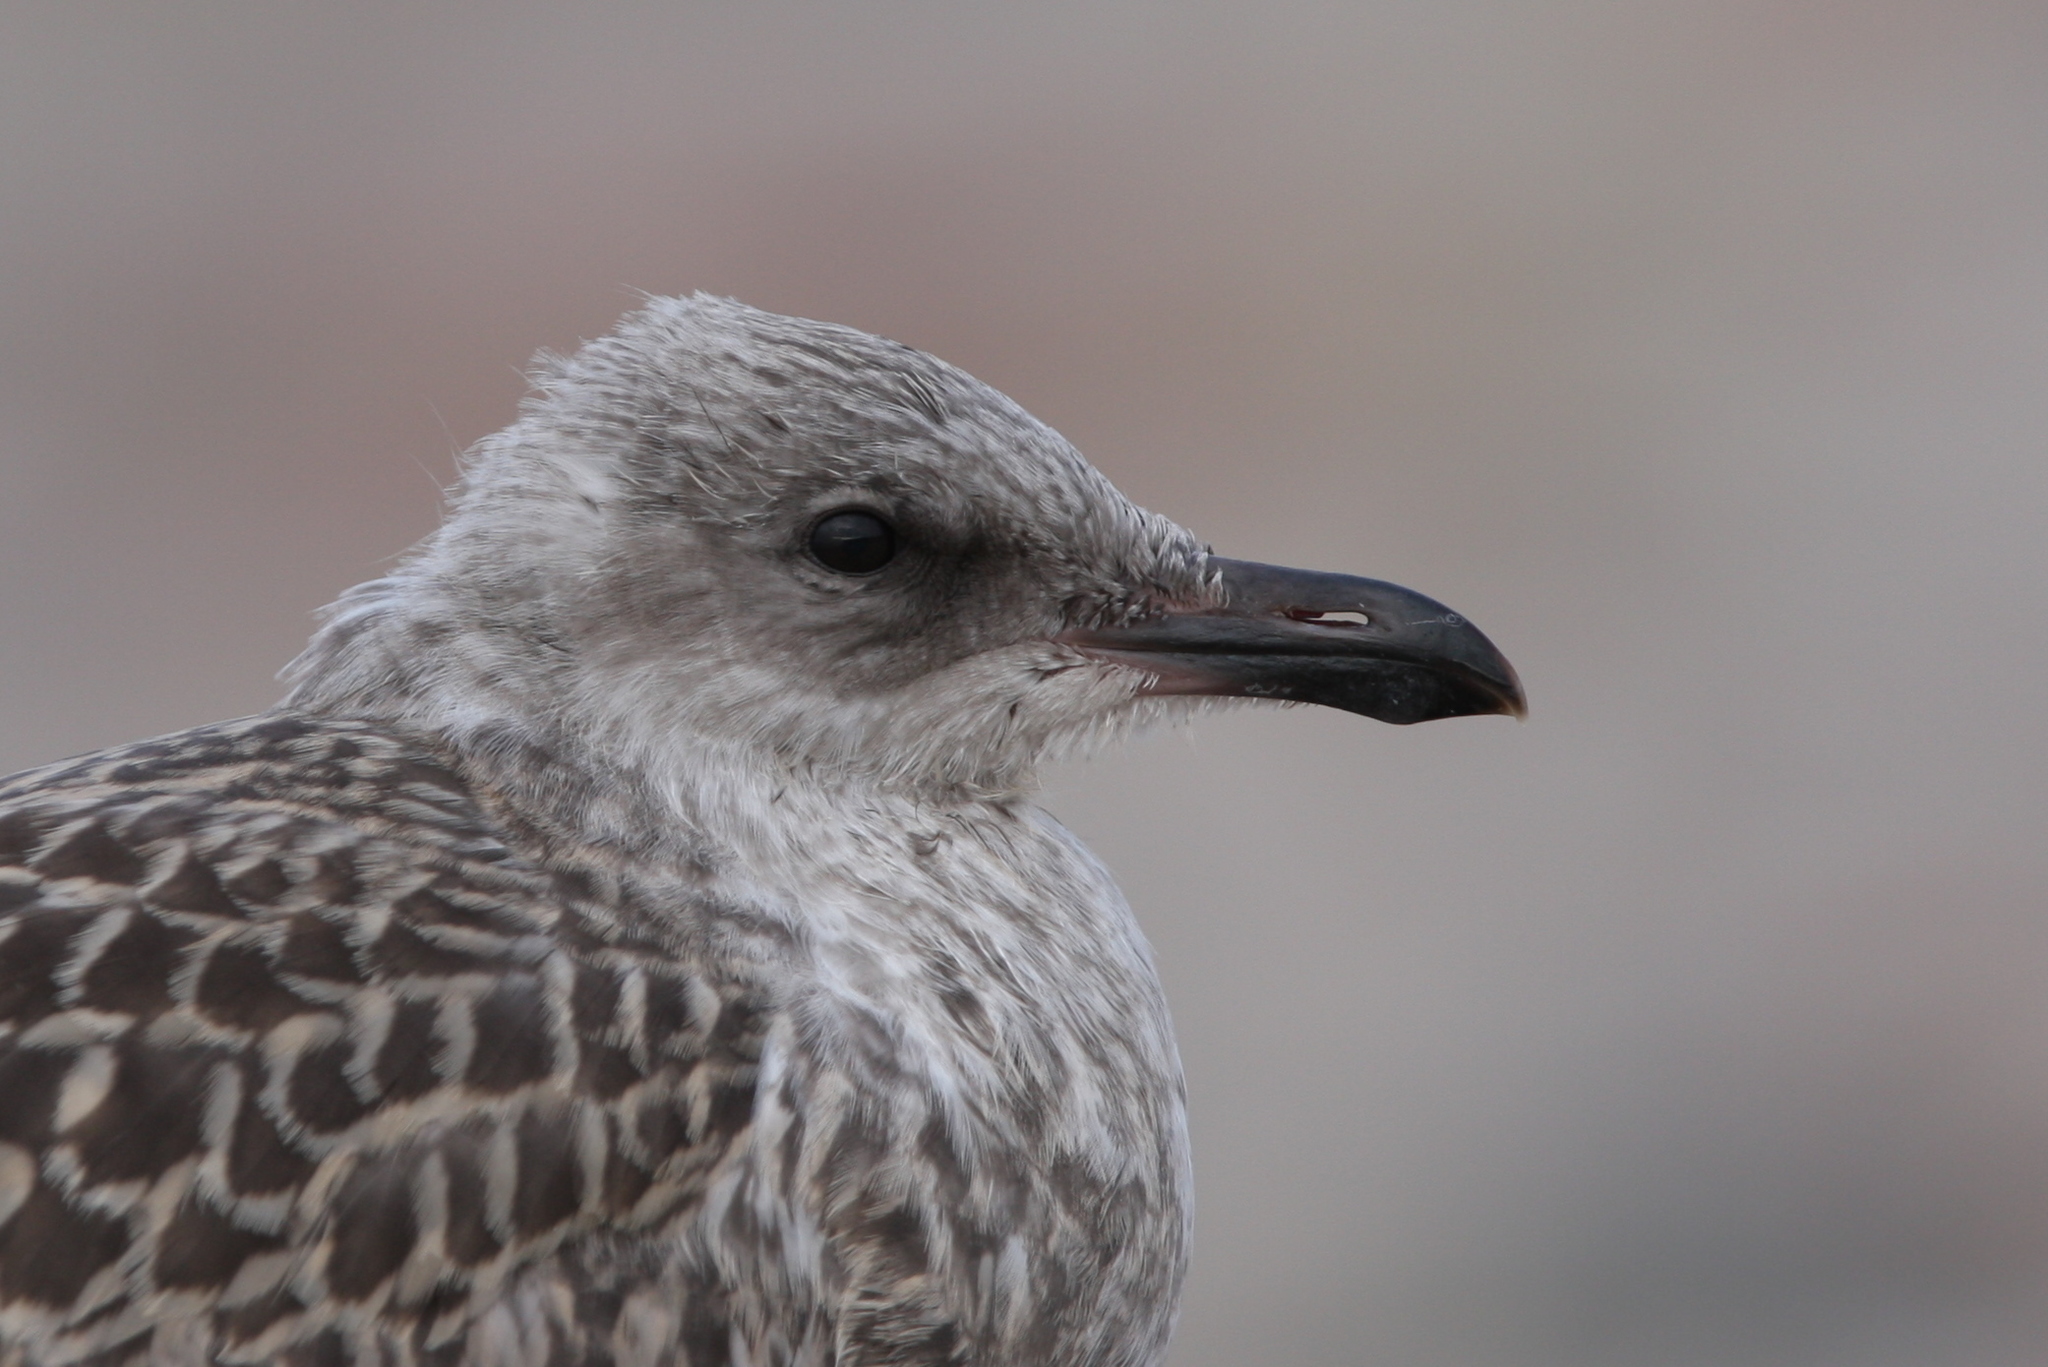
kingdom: Animalia
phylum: Chordata
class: Aves
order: Charadriiformes
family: Laridae
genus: Larus
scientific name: Larus fuscus
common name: Lesser black-backed gull
